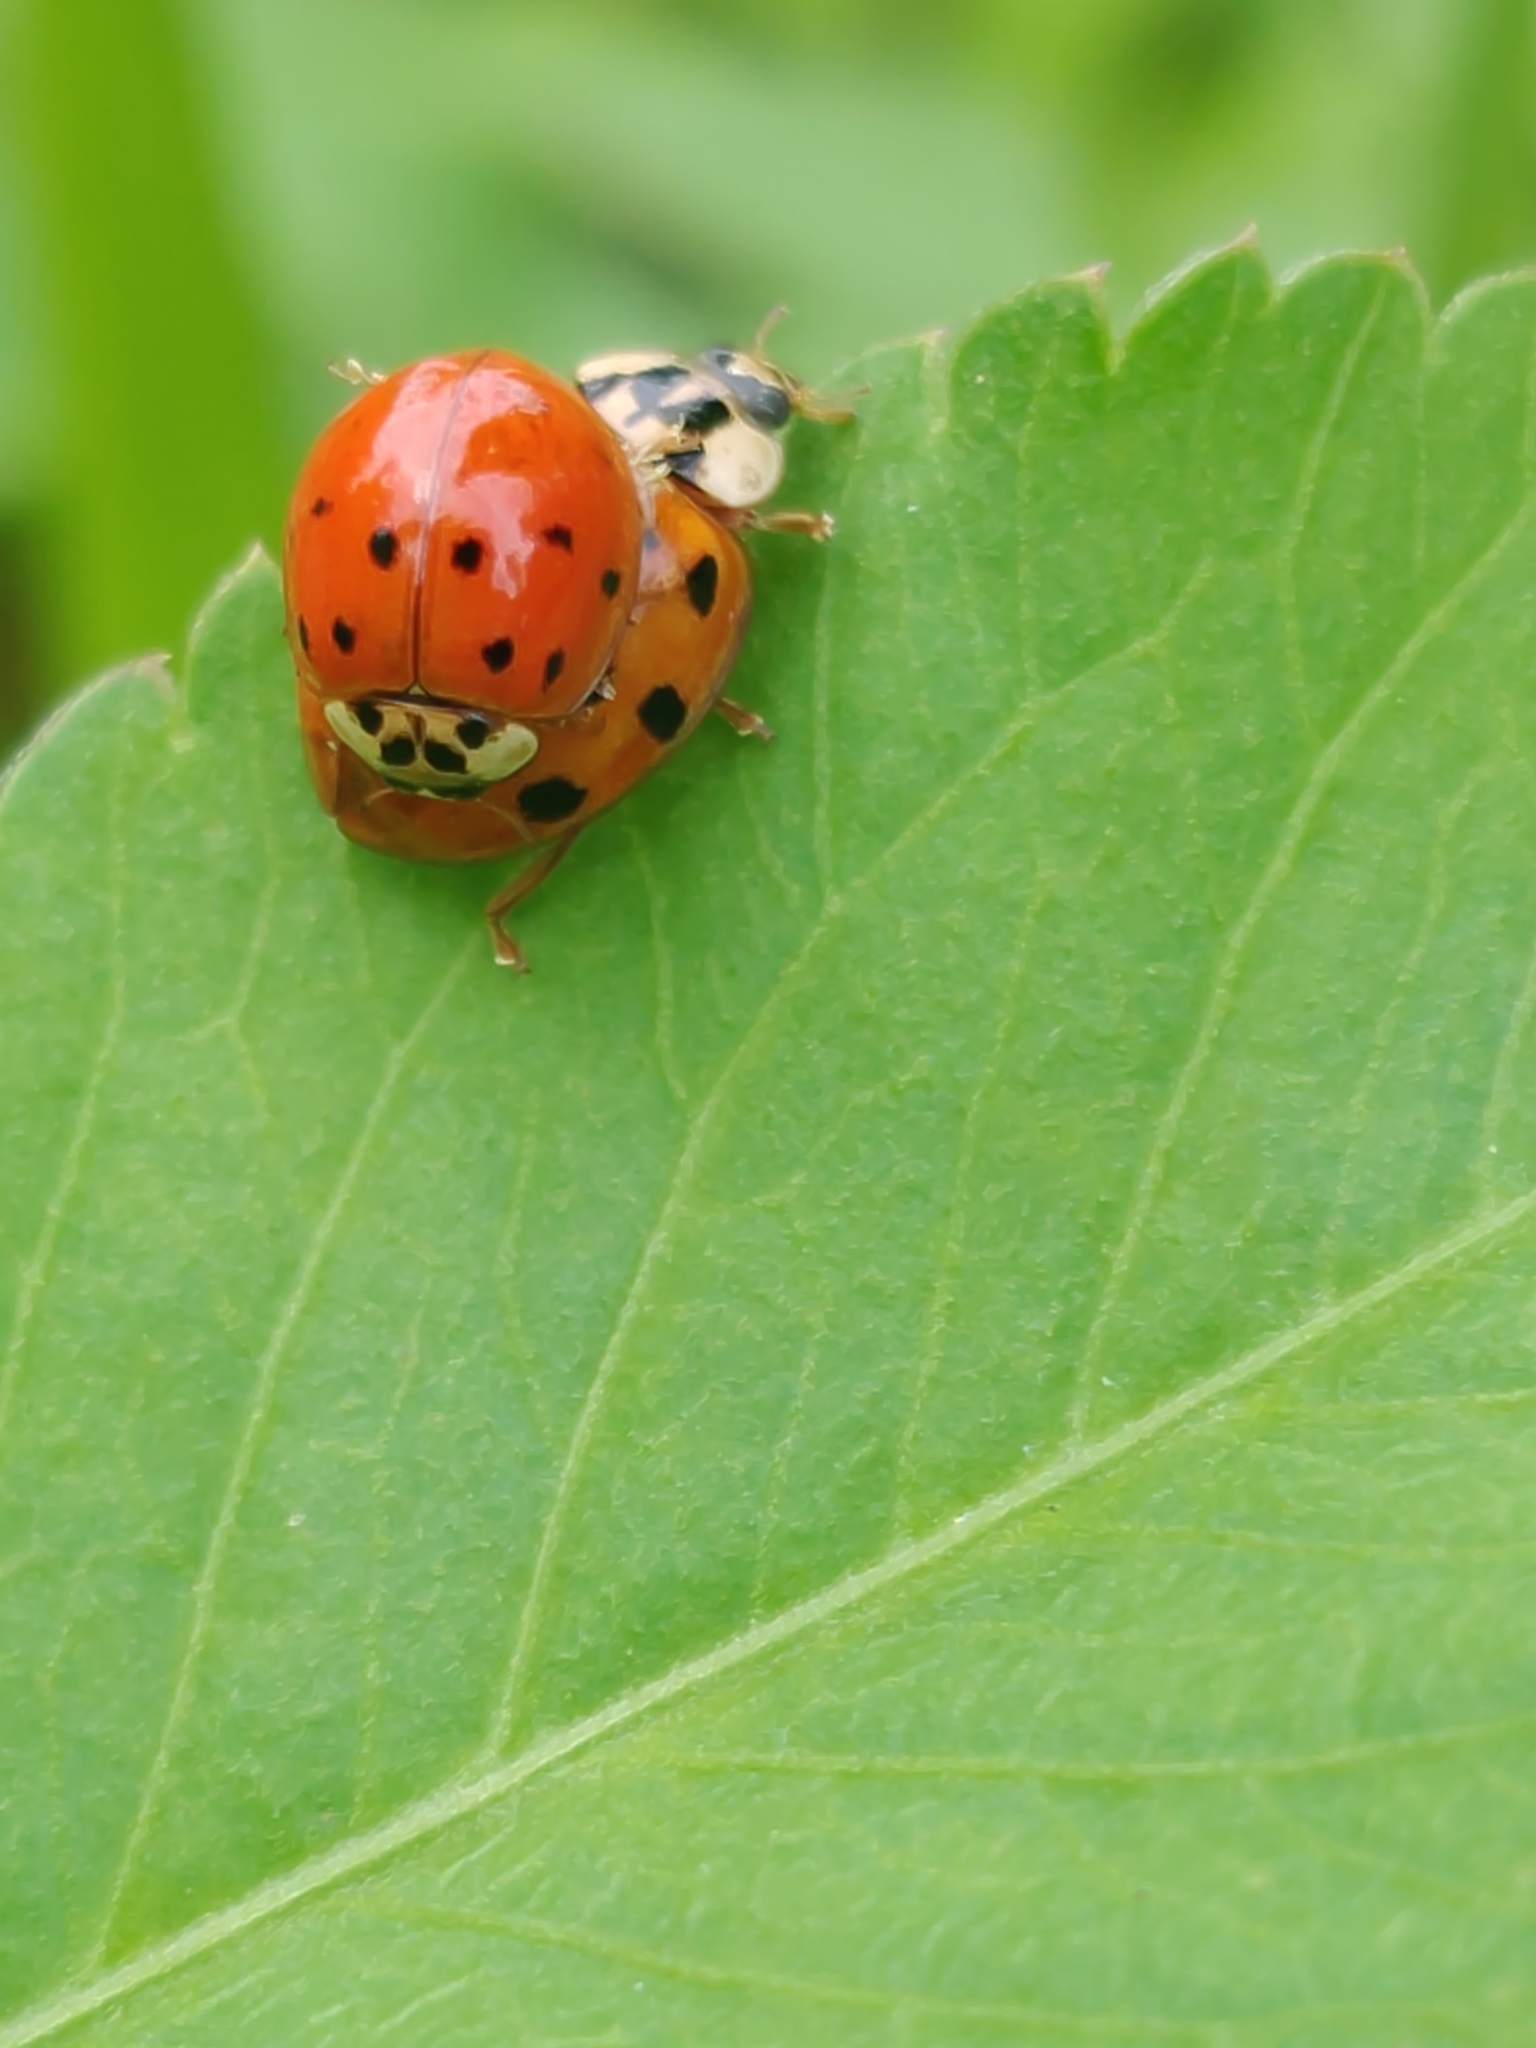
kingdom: Animalia
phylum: Arthropoda
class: Insecta
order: Coleoptera
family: Coccinellidae
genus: Harmonia
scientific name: Harmonia axyridis
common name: Harlequin ladybird
